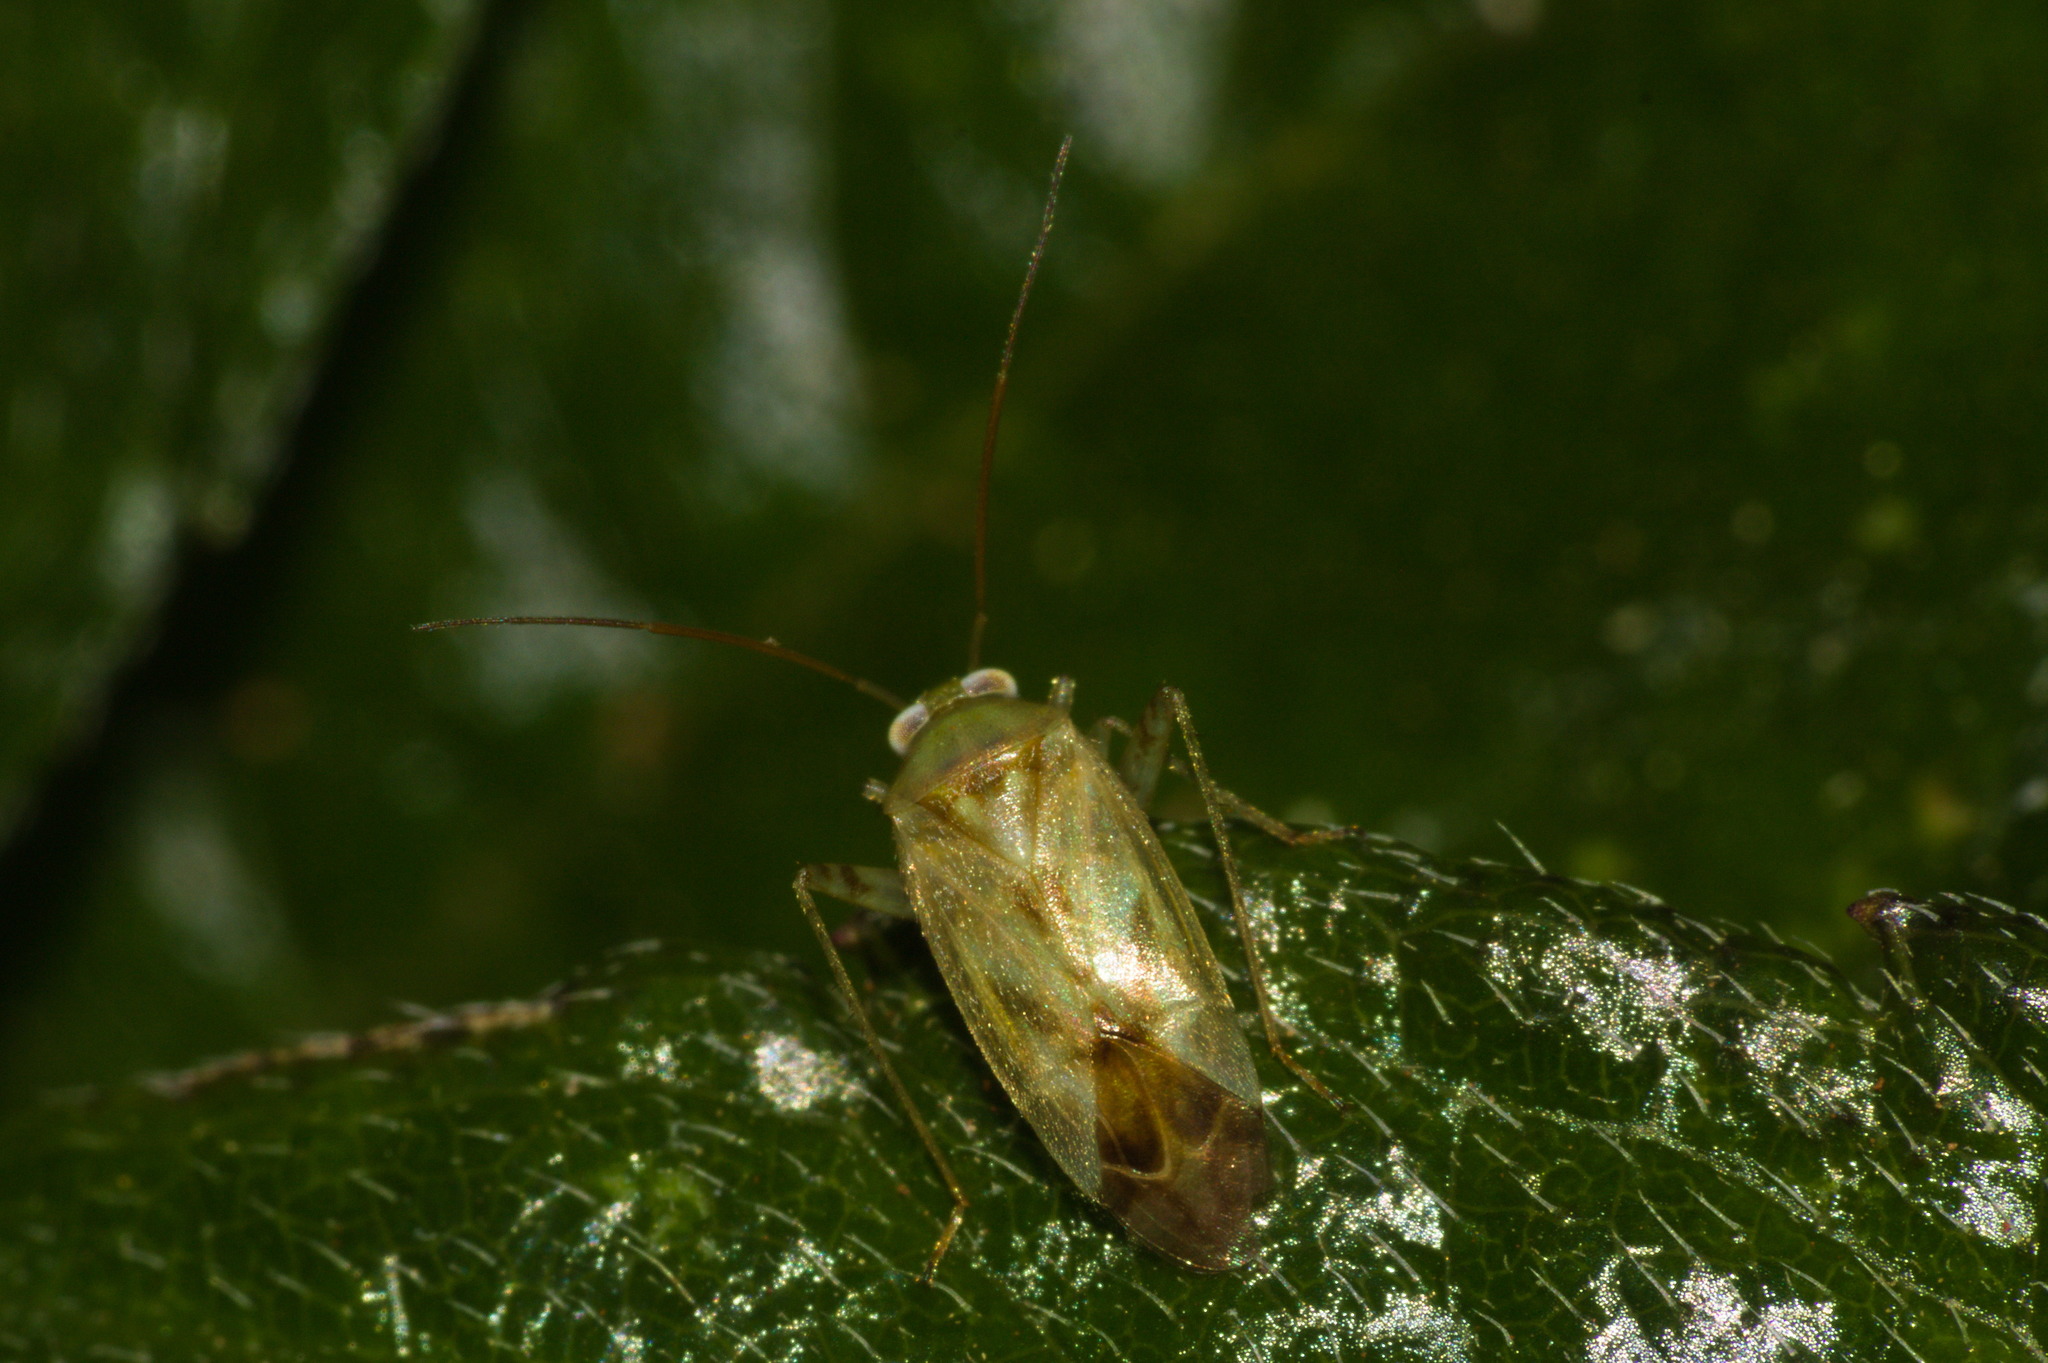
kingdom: Animalia
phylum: Arthropoda
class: Insecta
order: Hemiptera
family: Miridae
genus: Taylorilygus
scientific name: Taylorilygus apicalis
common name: Plant bug
